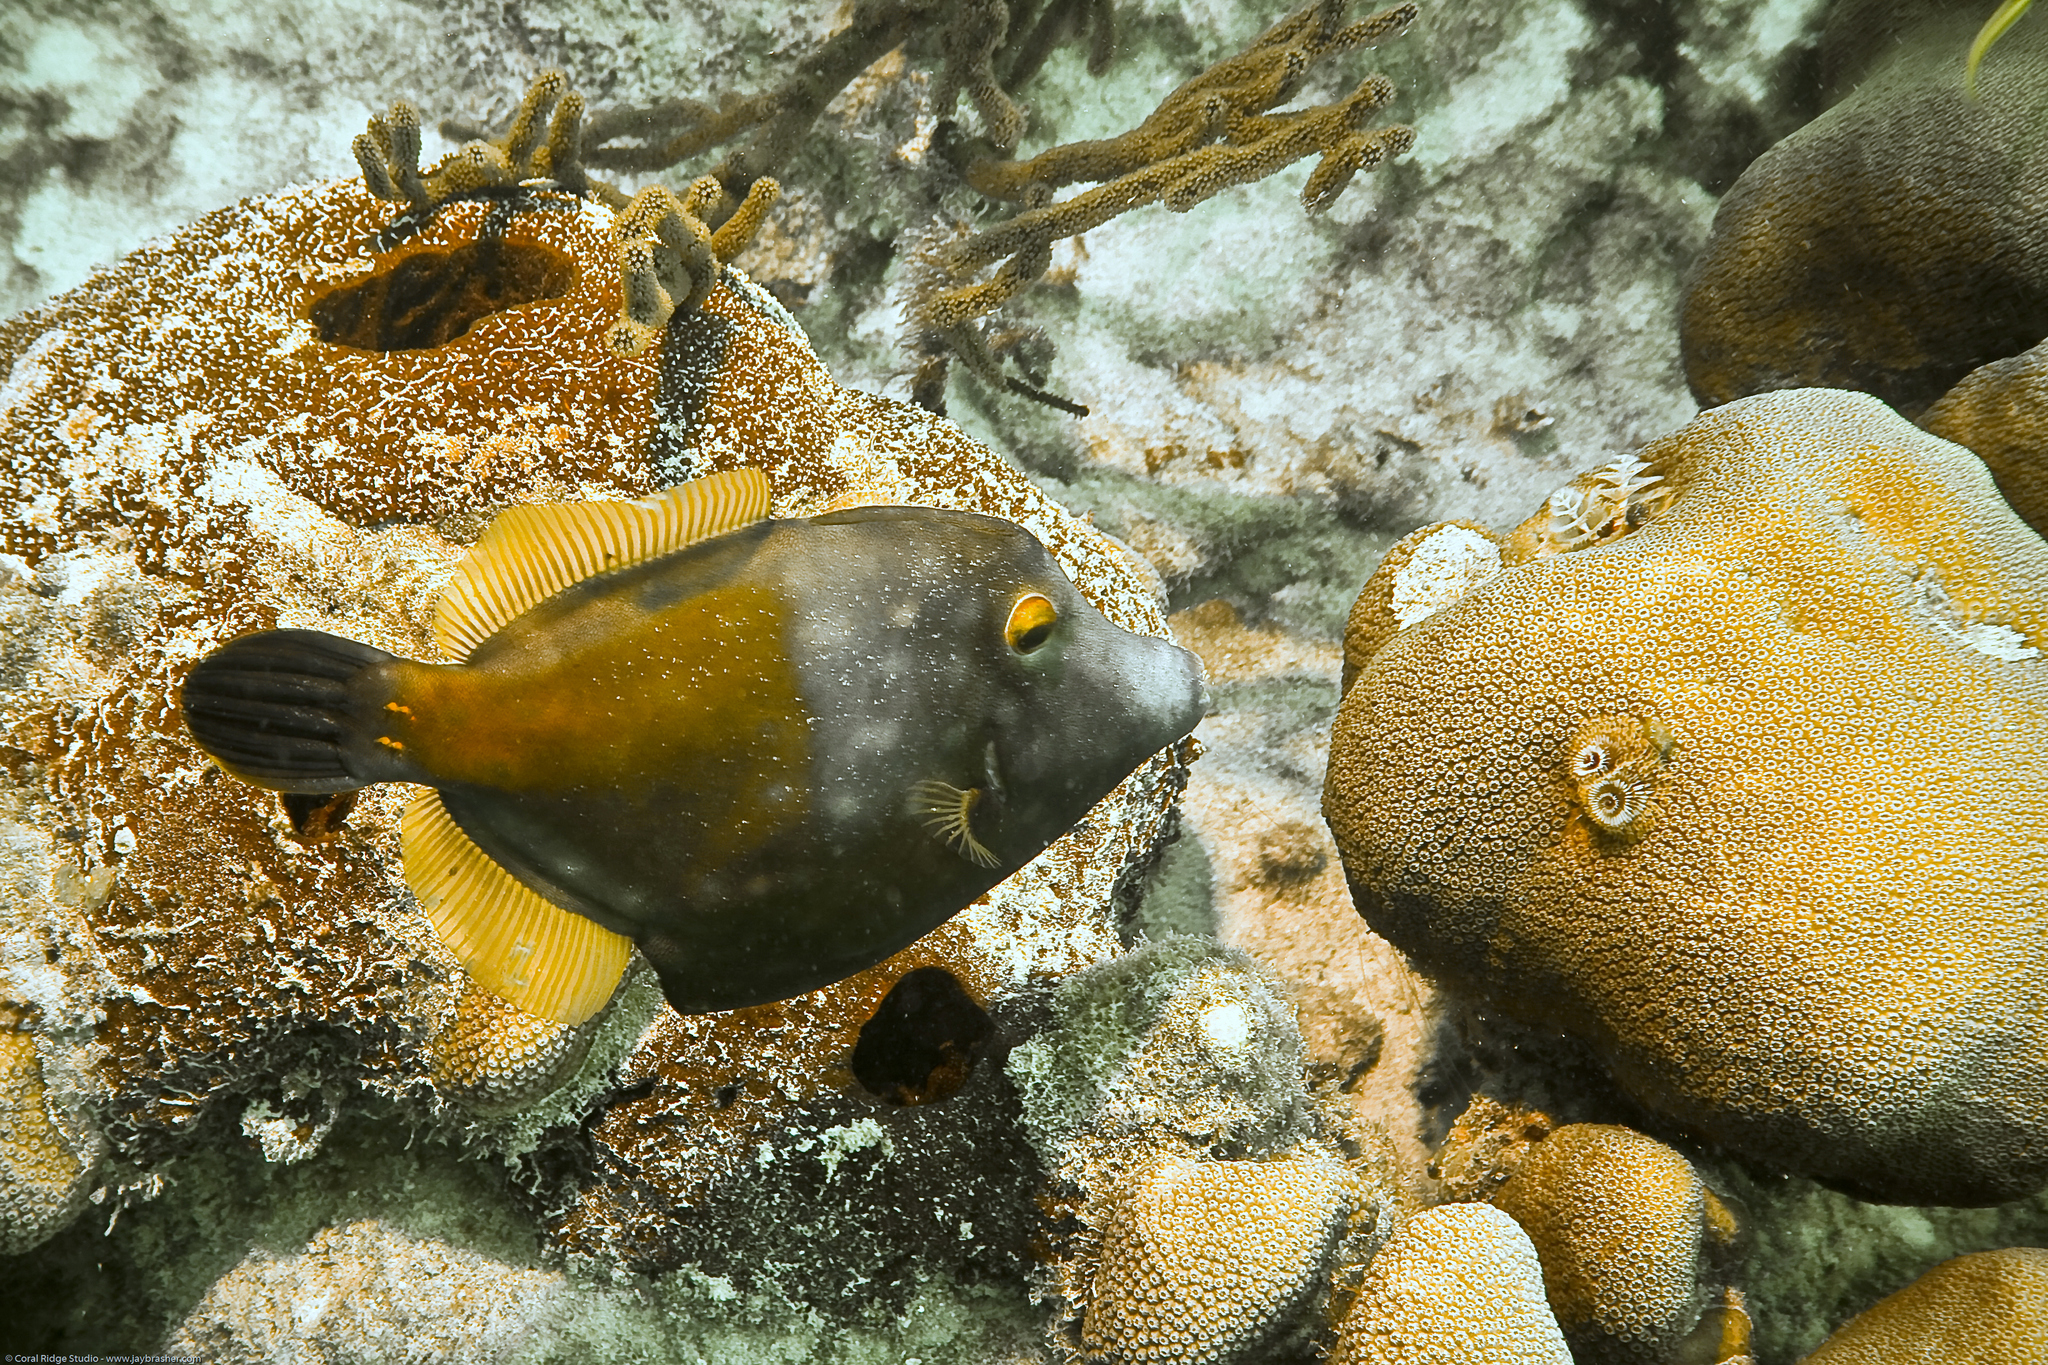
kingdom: Animalia
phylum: Chordata
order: Tetraodontiformes
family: Monacanthidae
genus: Cantherhines
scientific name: Cantherhines macrocerus
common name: Whitespotted filefish
